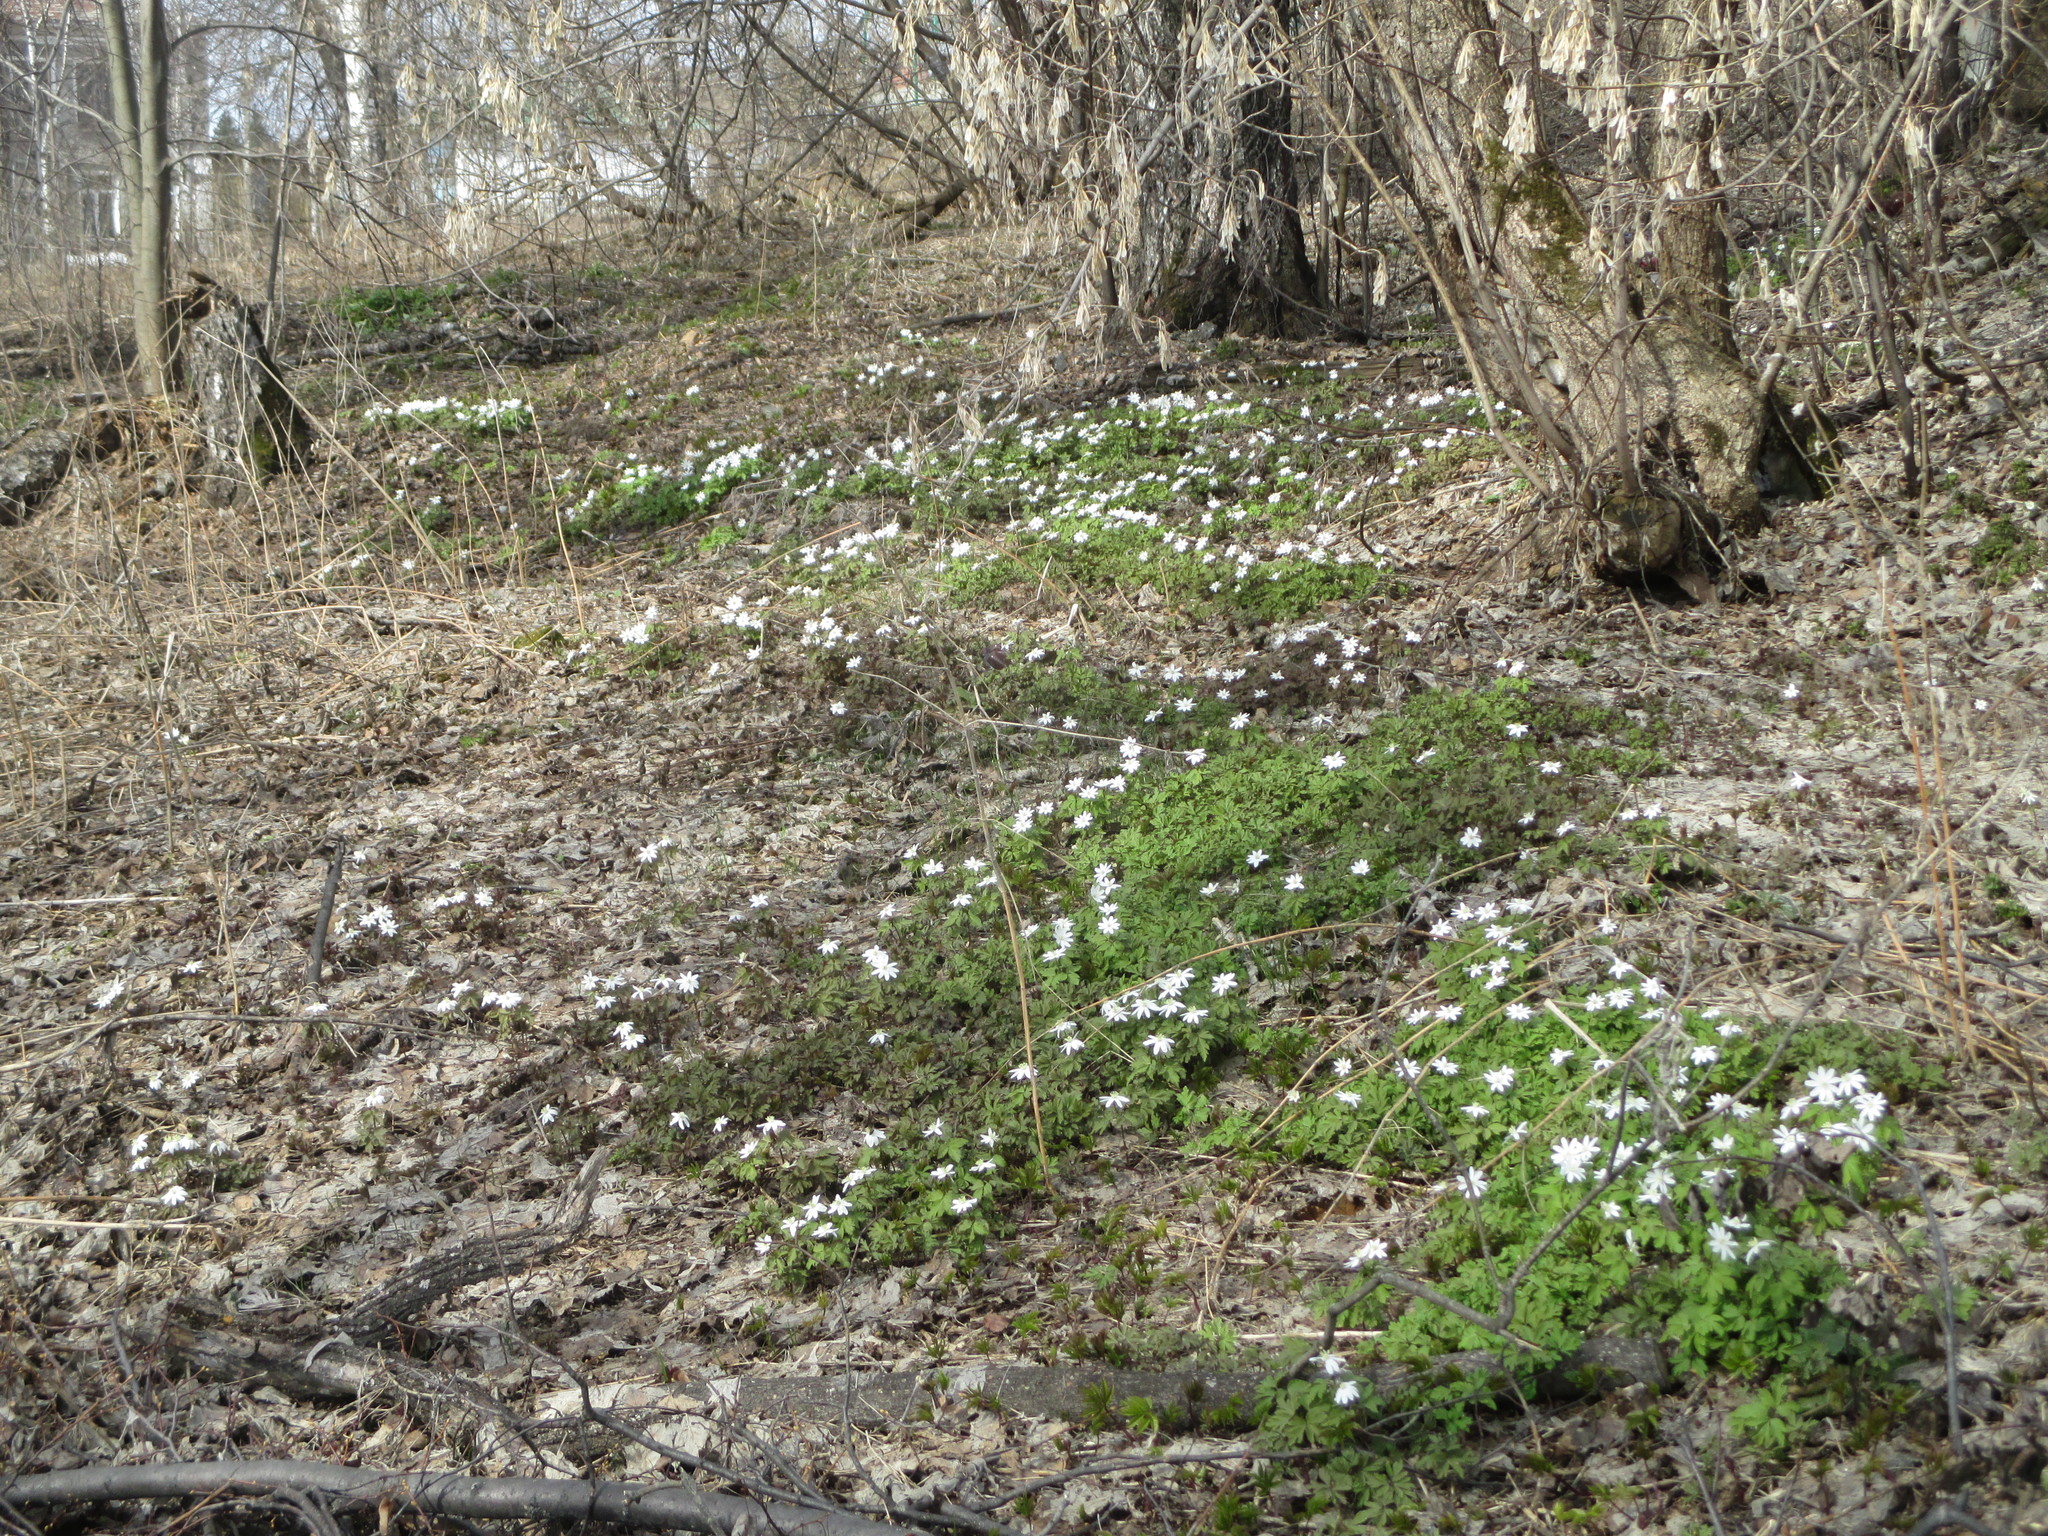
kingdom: Plantae
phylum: Tracheophyta
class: Magnoliopsida
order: Ranunculales
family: Ranunculaceae
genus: Anemone
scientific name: Anemone altaica
